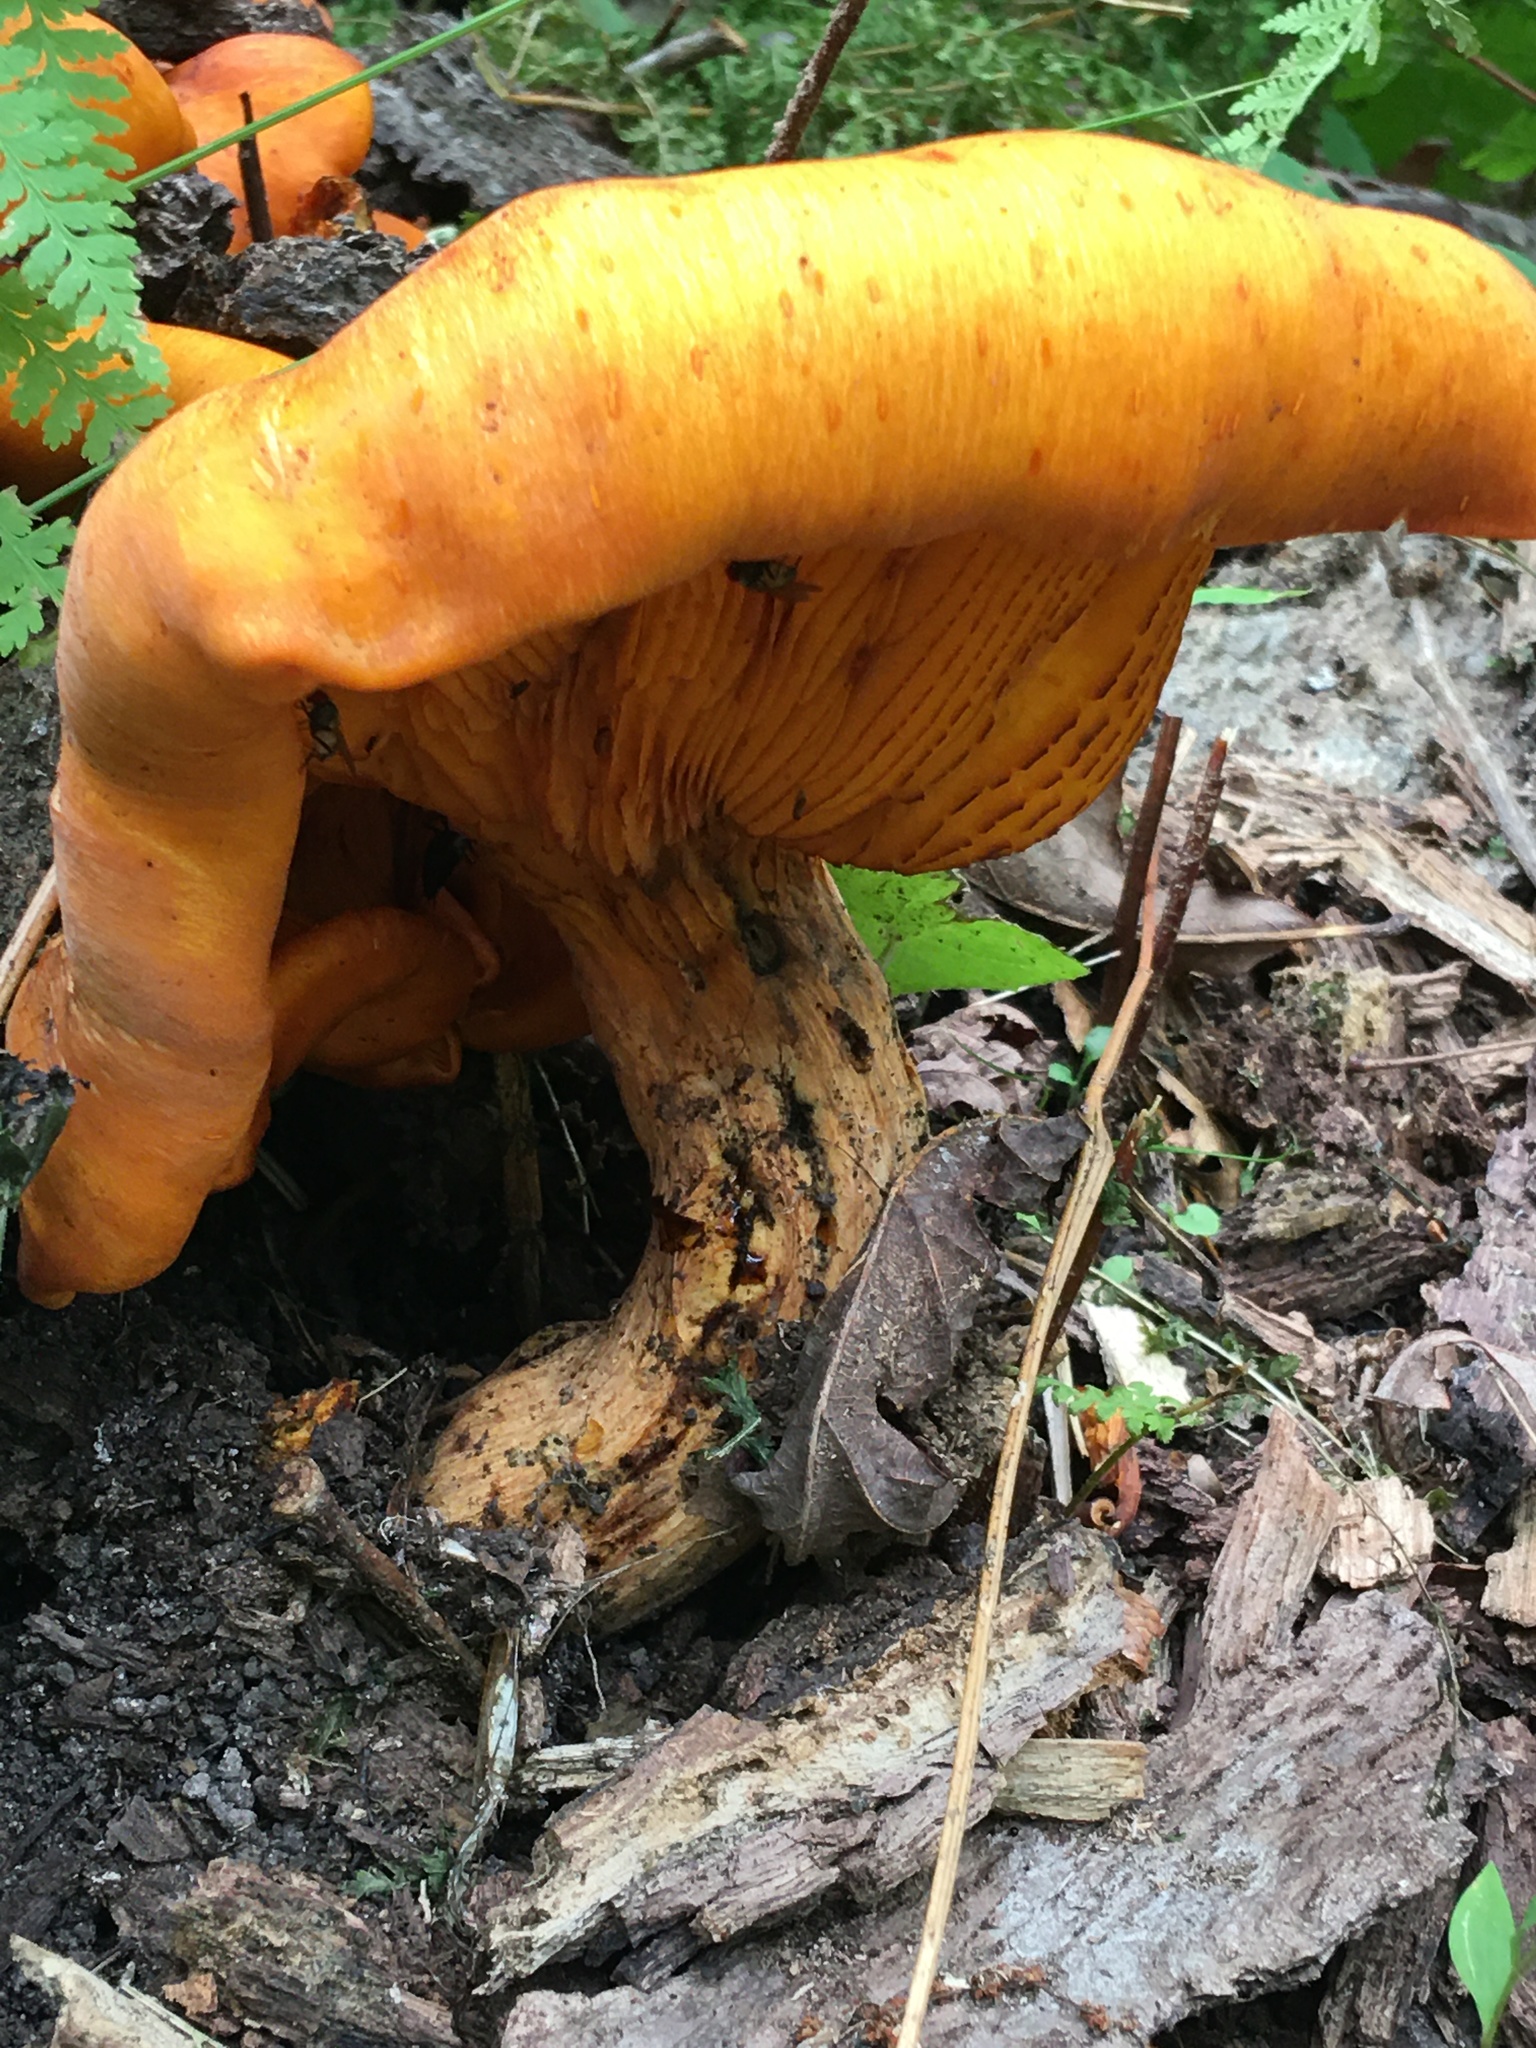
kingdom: Fungi
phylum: Basidiomycota
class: Agaricomycetes
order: Agaricales
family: Omphalotaceae
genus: Omphalotus
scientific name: Omphalotus illudens
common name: Jack o lantern
